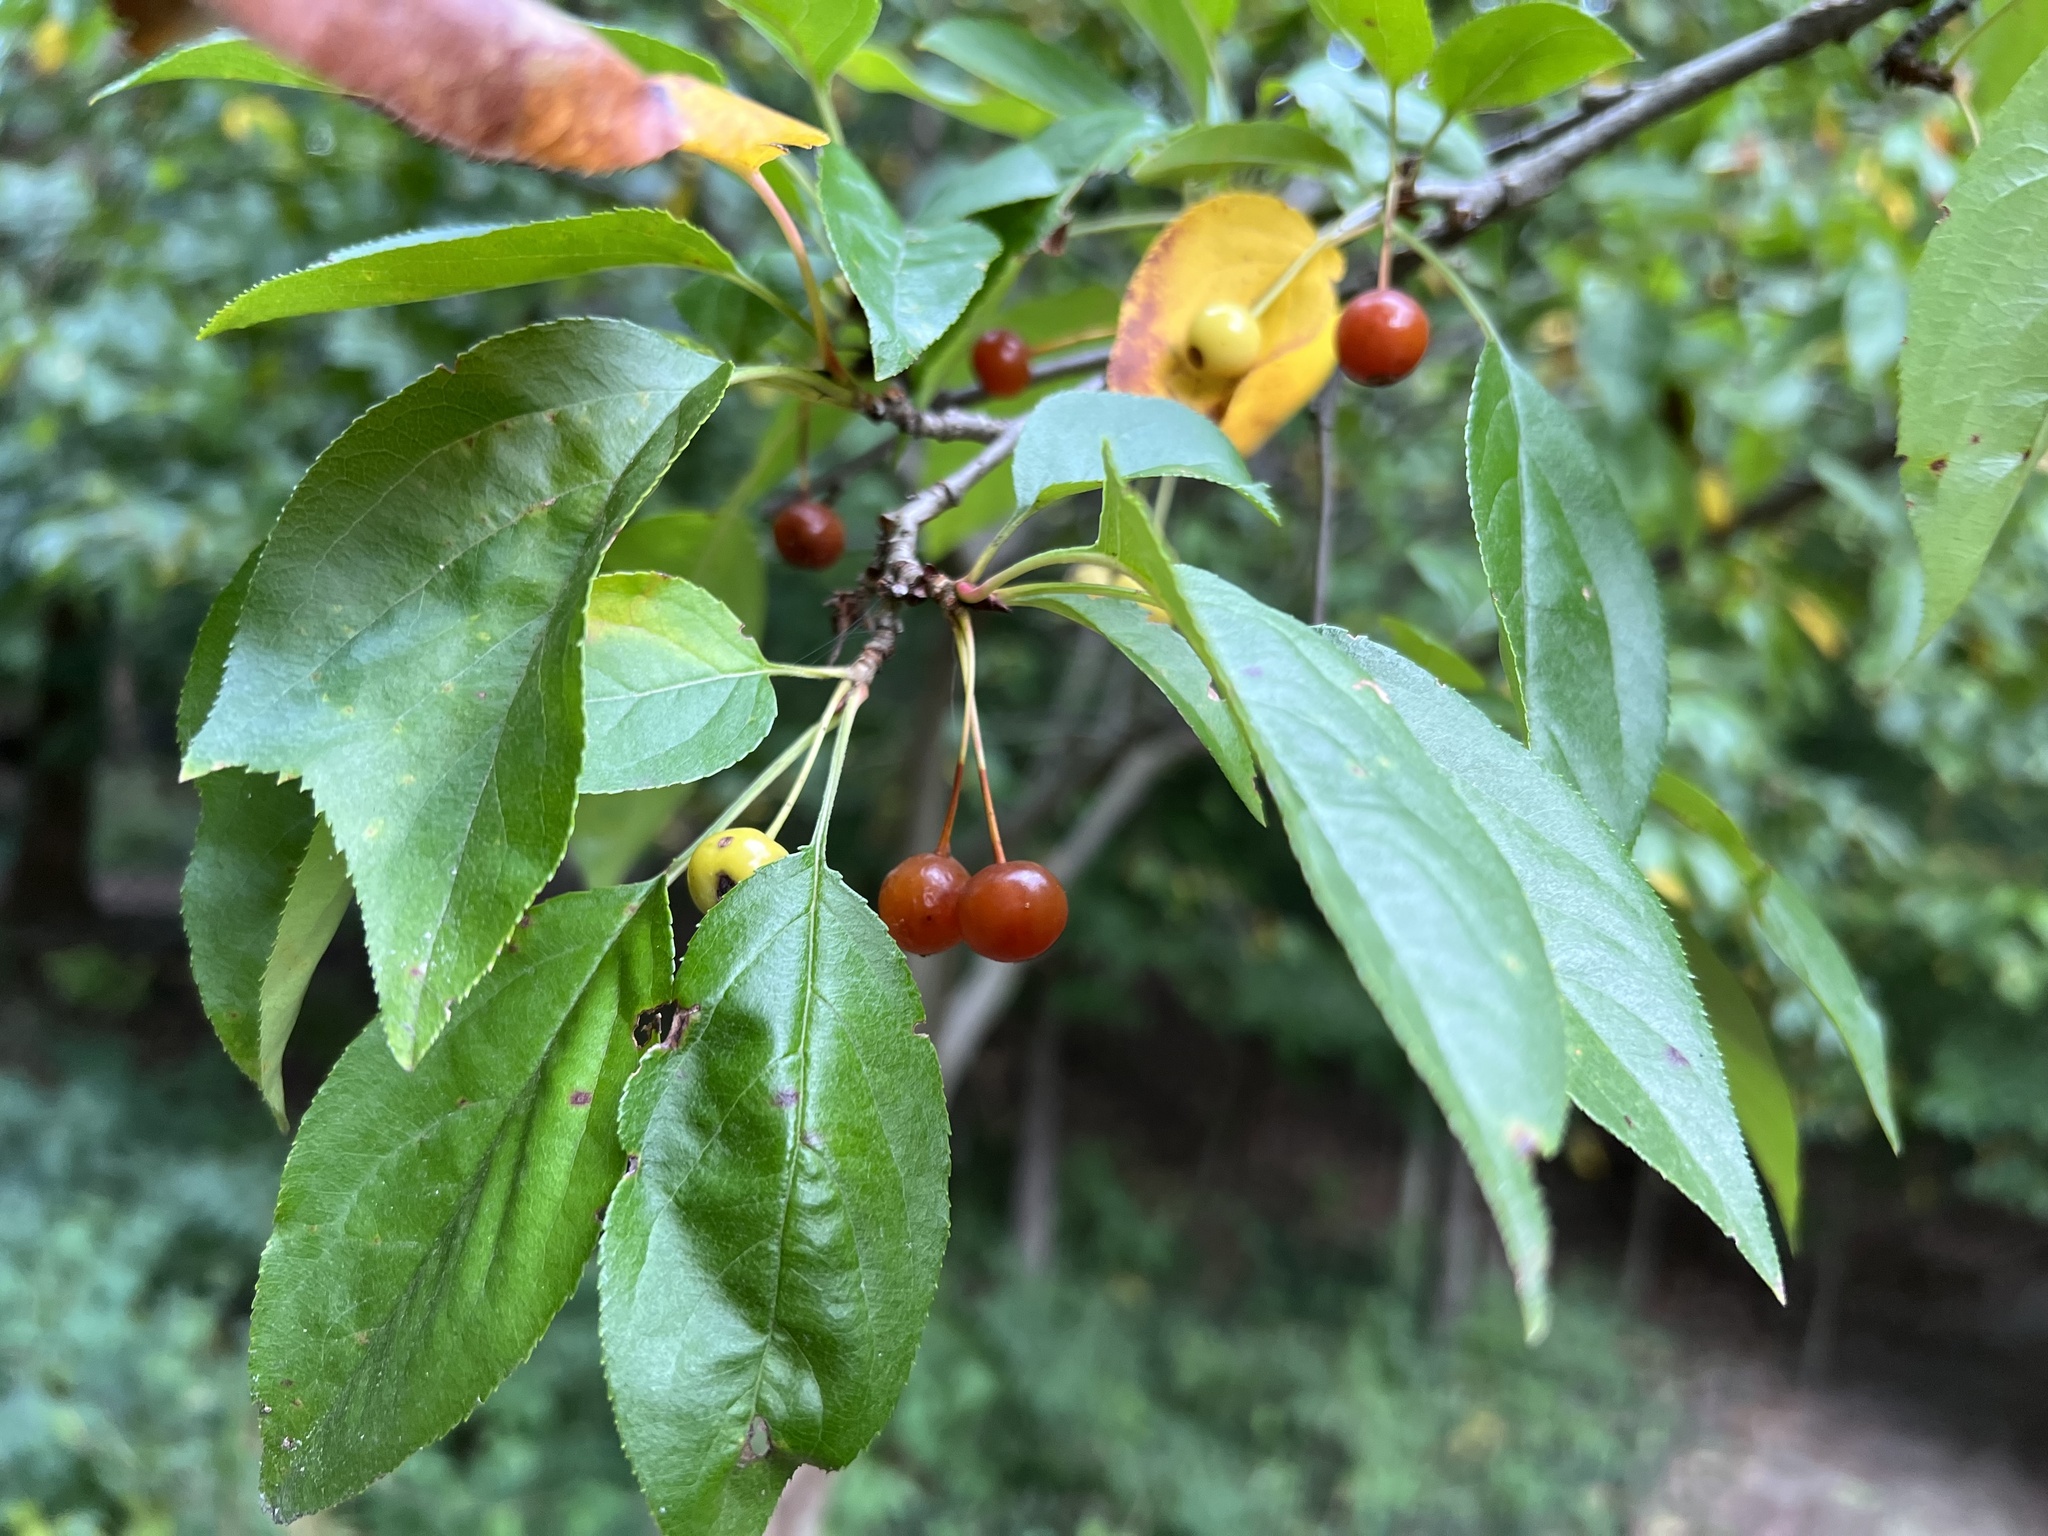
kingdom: Plantae
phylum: Tracheophyta
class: Magnoliopsida
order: Rosales
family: Rosaceae
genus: Malus
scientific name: Malus baccata
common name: Siberian crab
